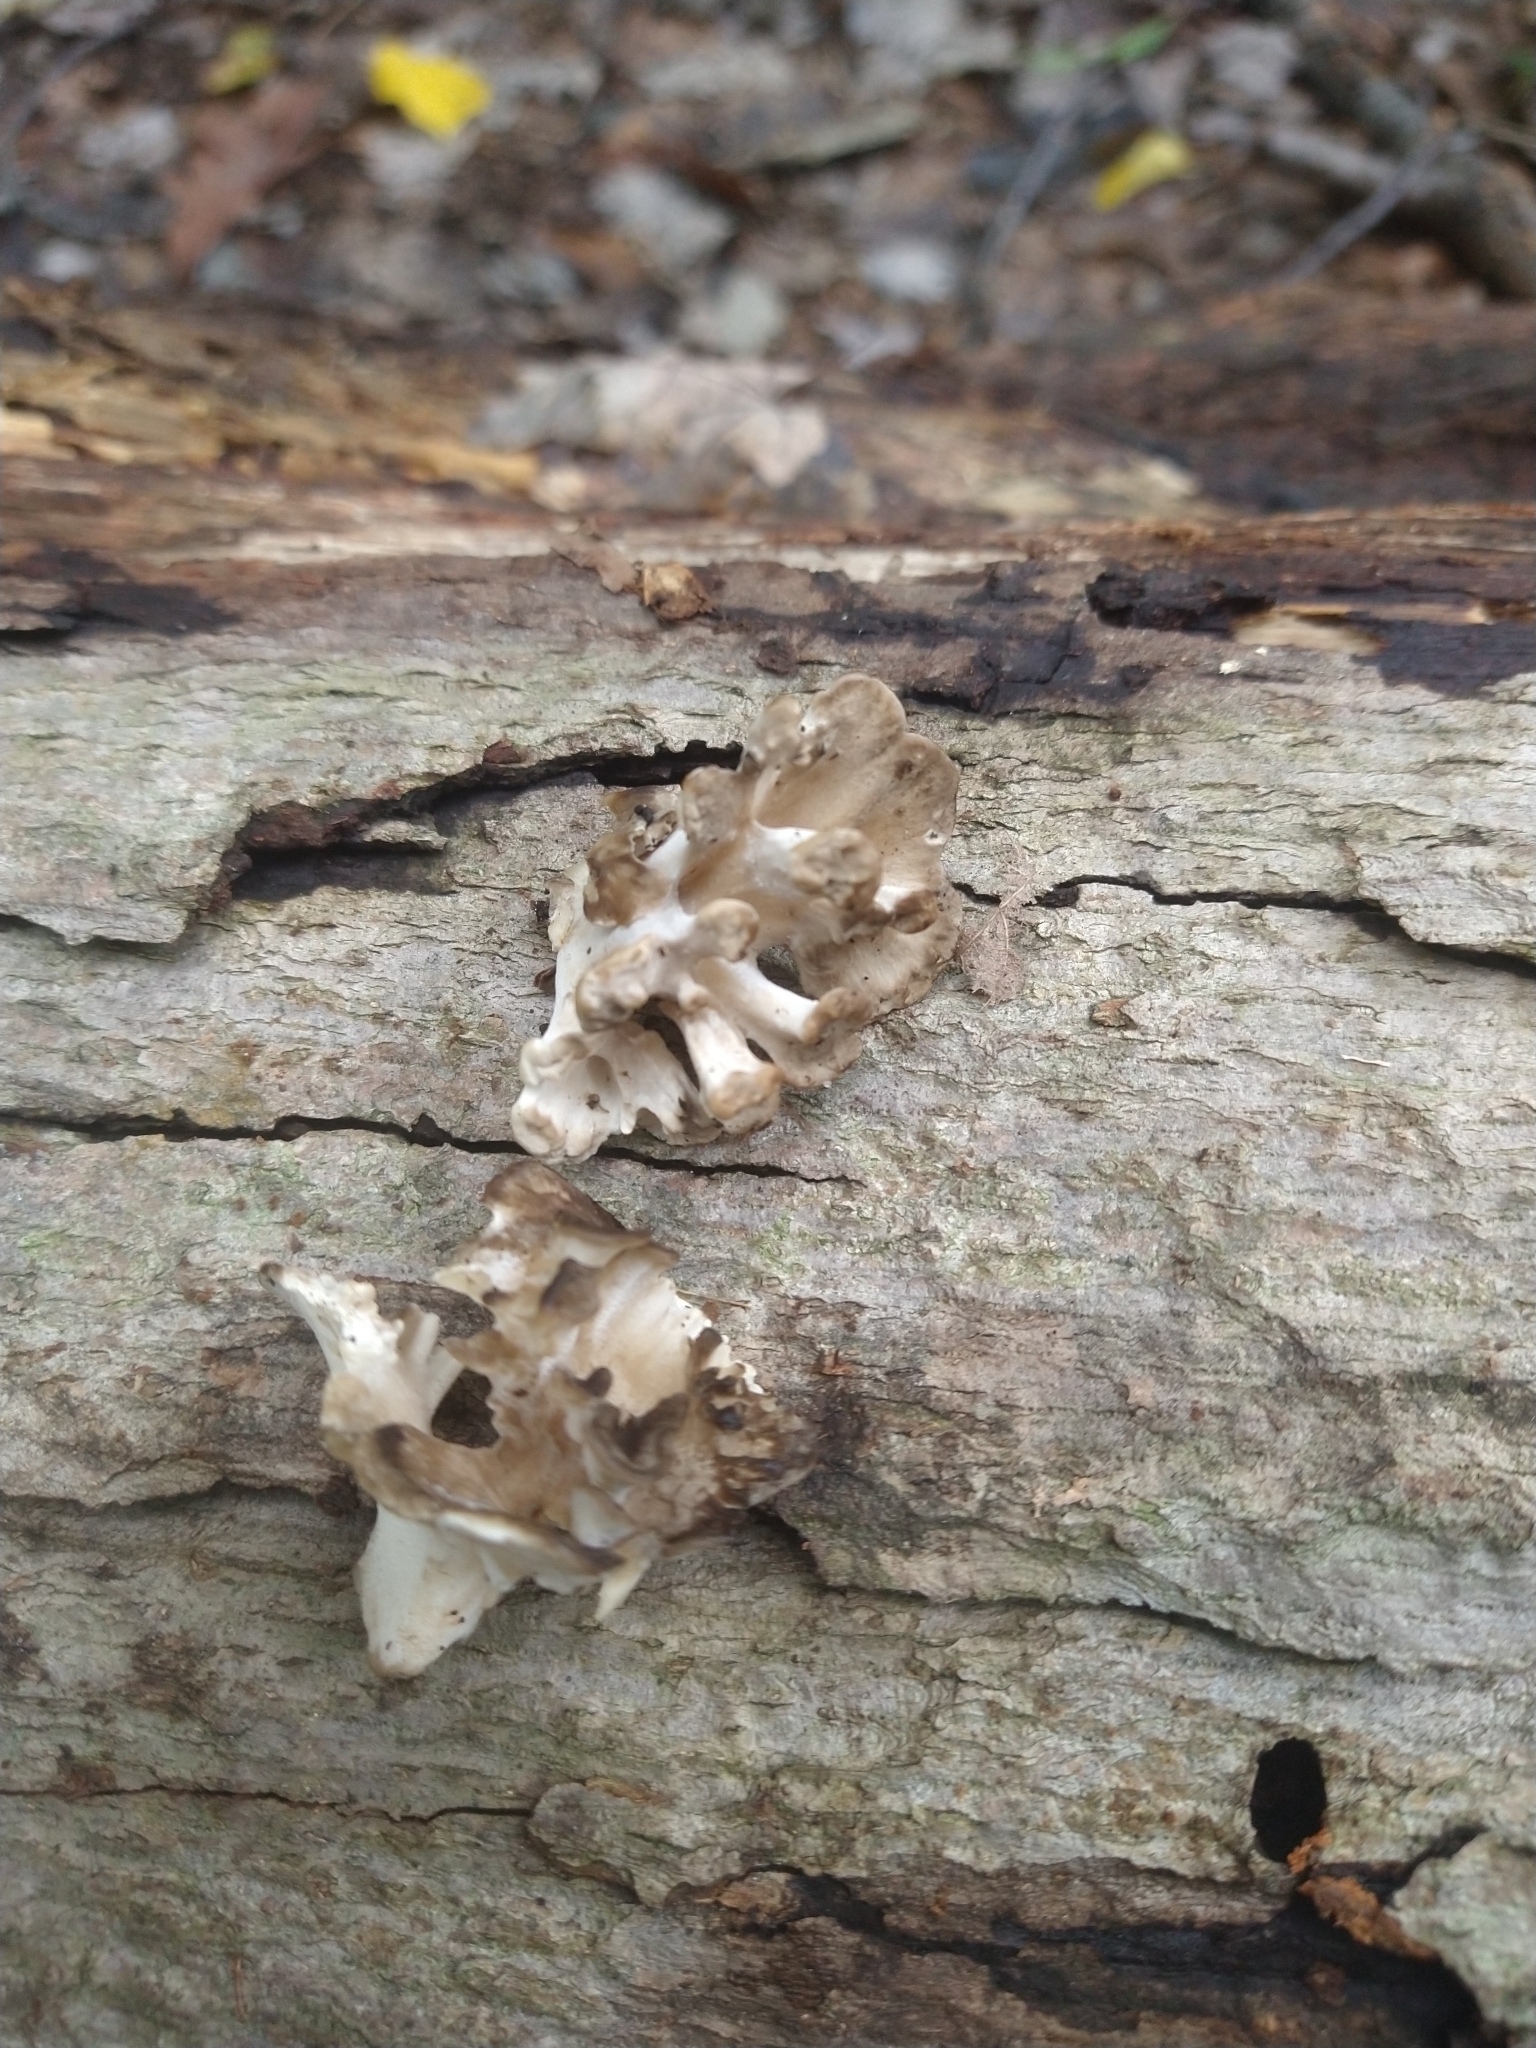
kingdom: Fungi
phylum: Basidiomycota
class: Agaricomycetes
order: Polyporales
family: Grifolaceae
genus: Grifola
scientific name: Grifola frondosa
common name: Hen of the woods
